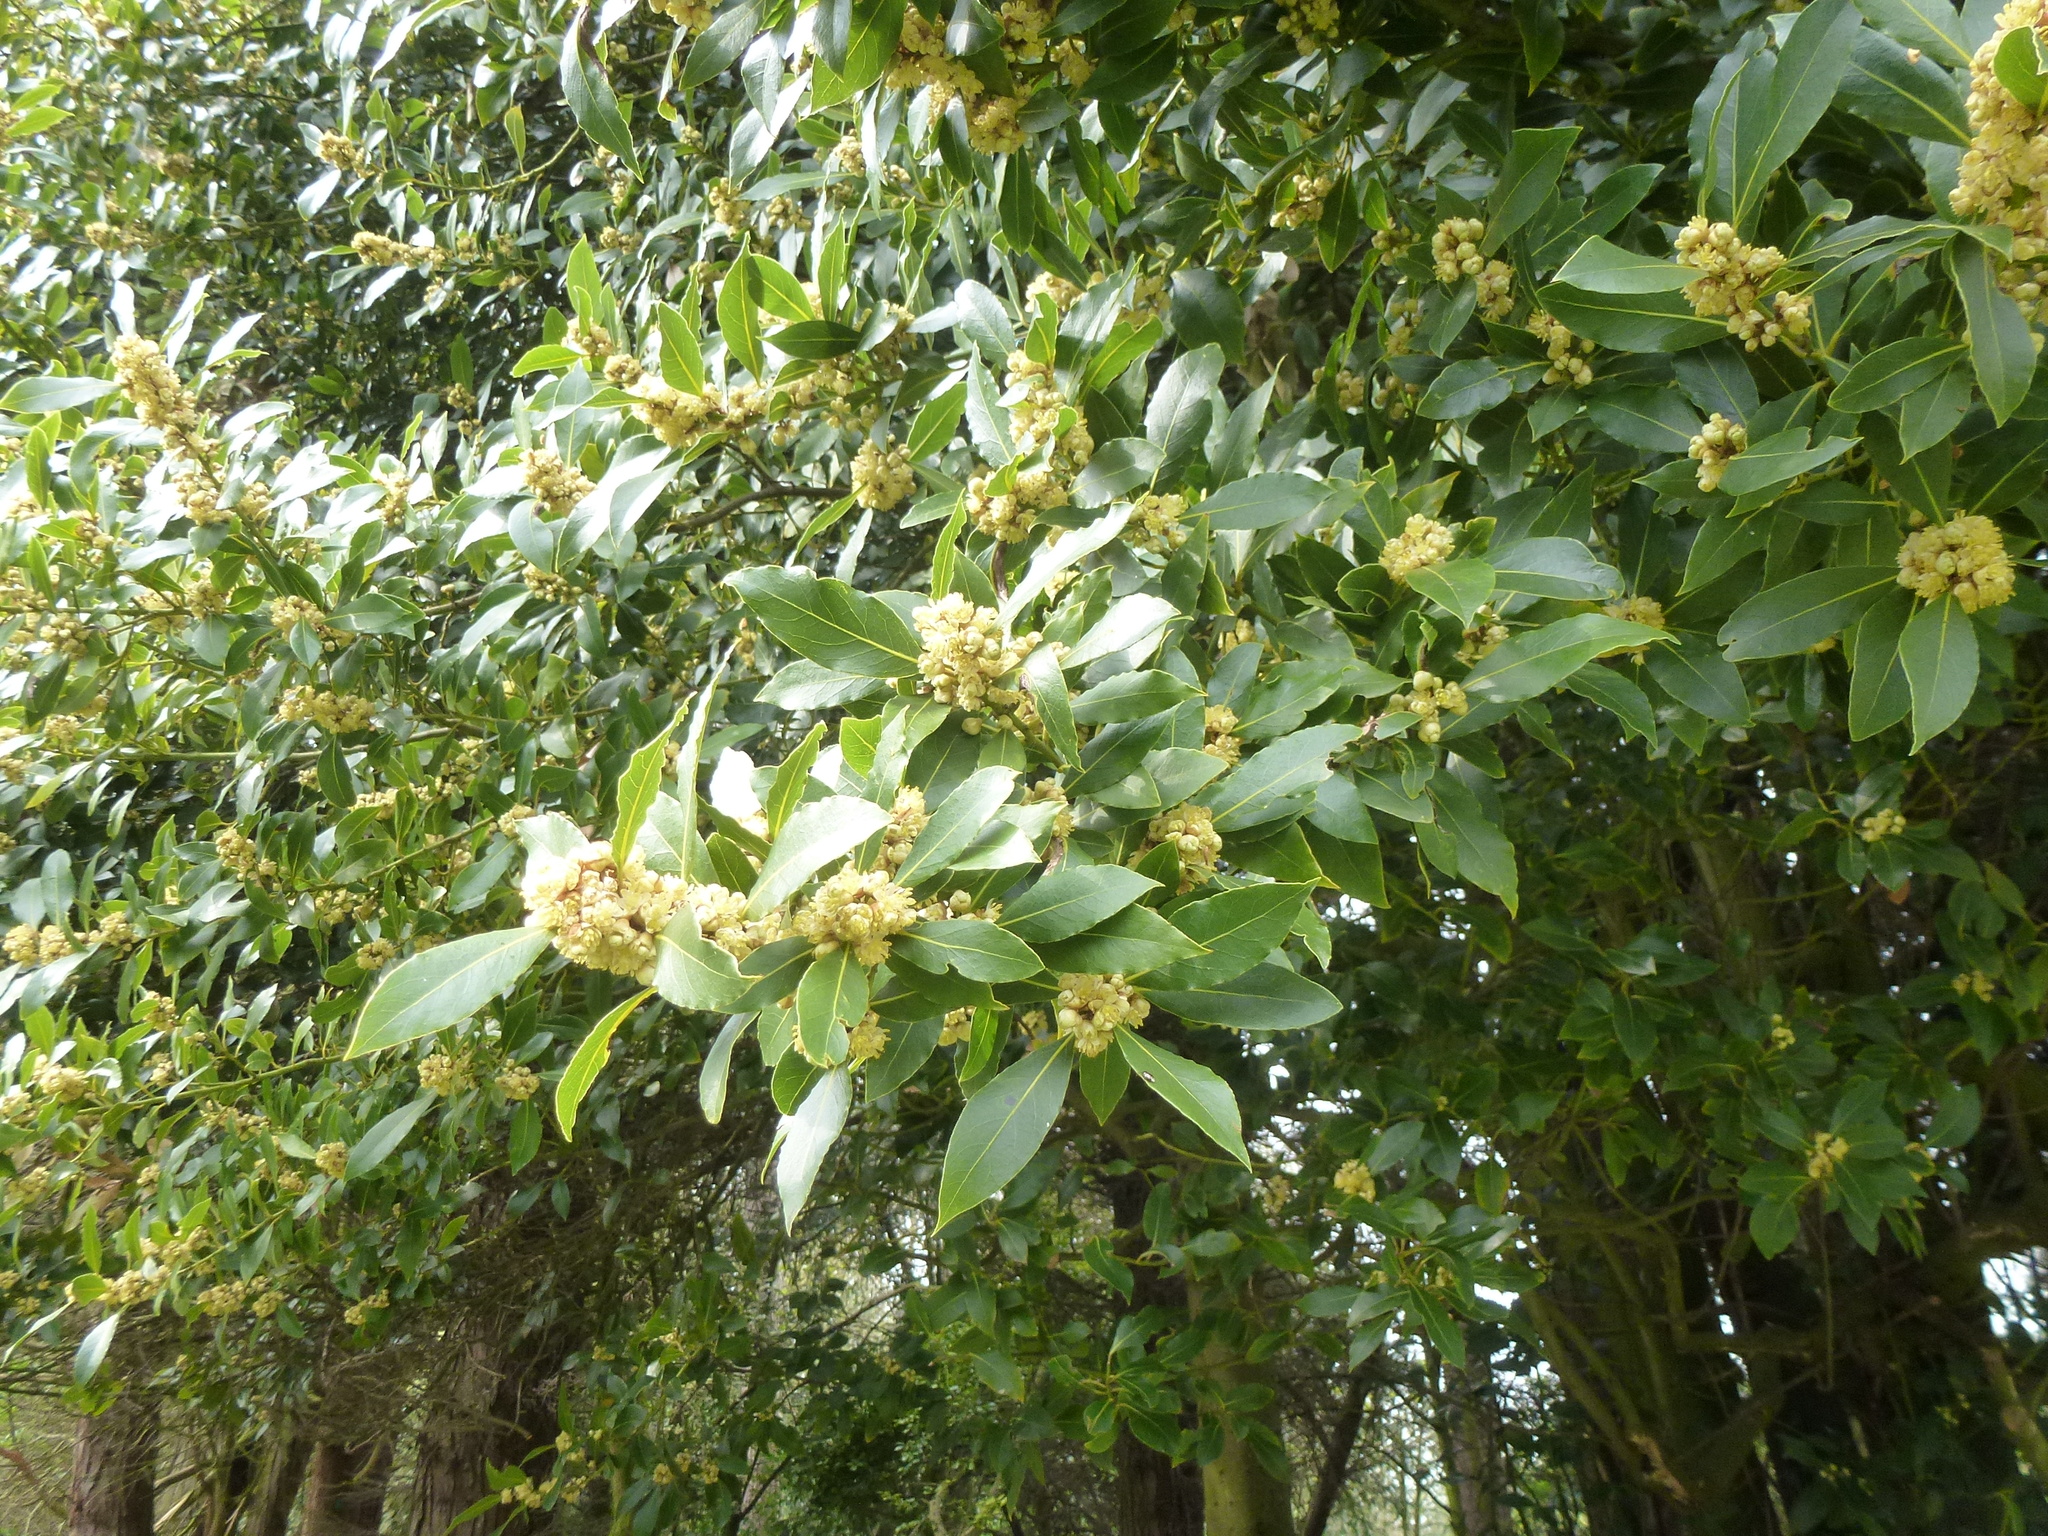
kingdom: Plantae
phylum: Tracheophyta
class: Magnoliopsida
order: Laurales
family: Lauraceae
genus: Laurus
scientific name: Laurus nobilis
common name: Bay
